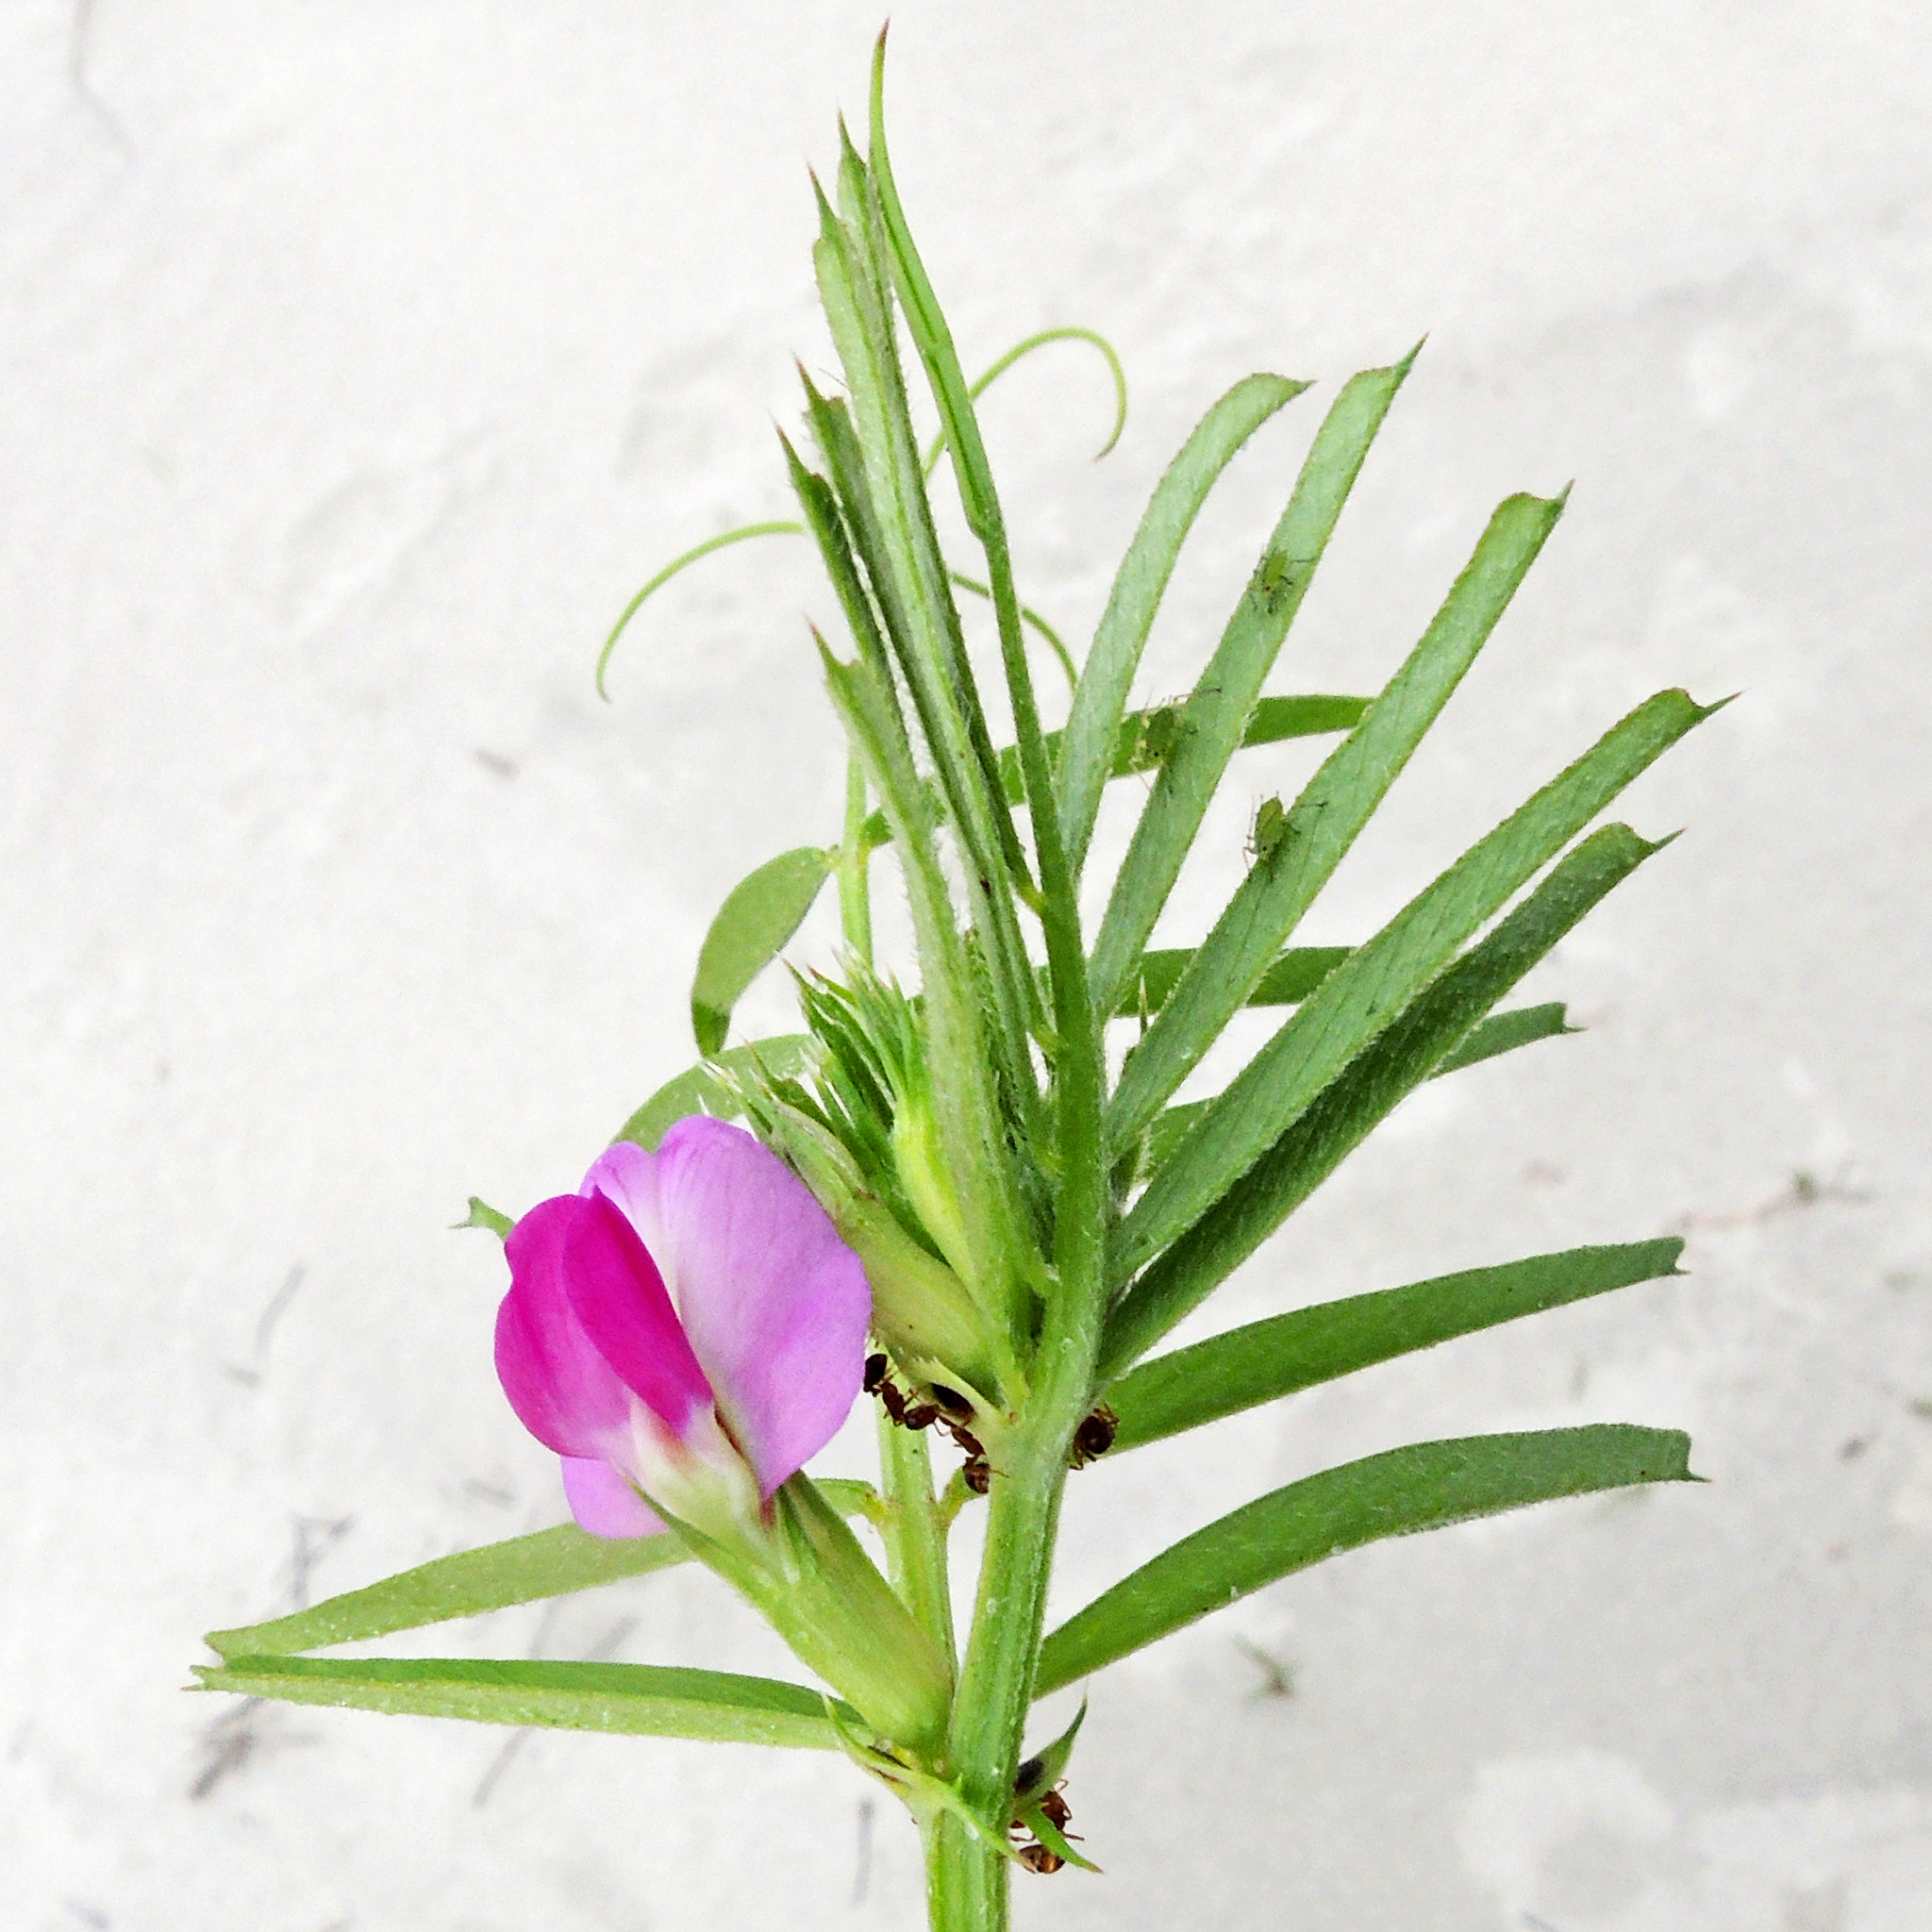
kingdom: Plantae
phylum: Tracheophyta
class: Magnoliopsida
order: Fabales
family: Fabaceae
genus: Vicia
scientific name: Vicia sativa
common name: Garden vetch
